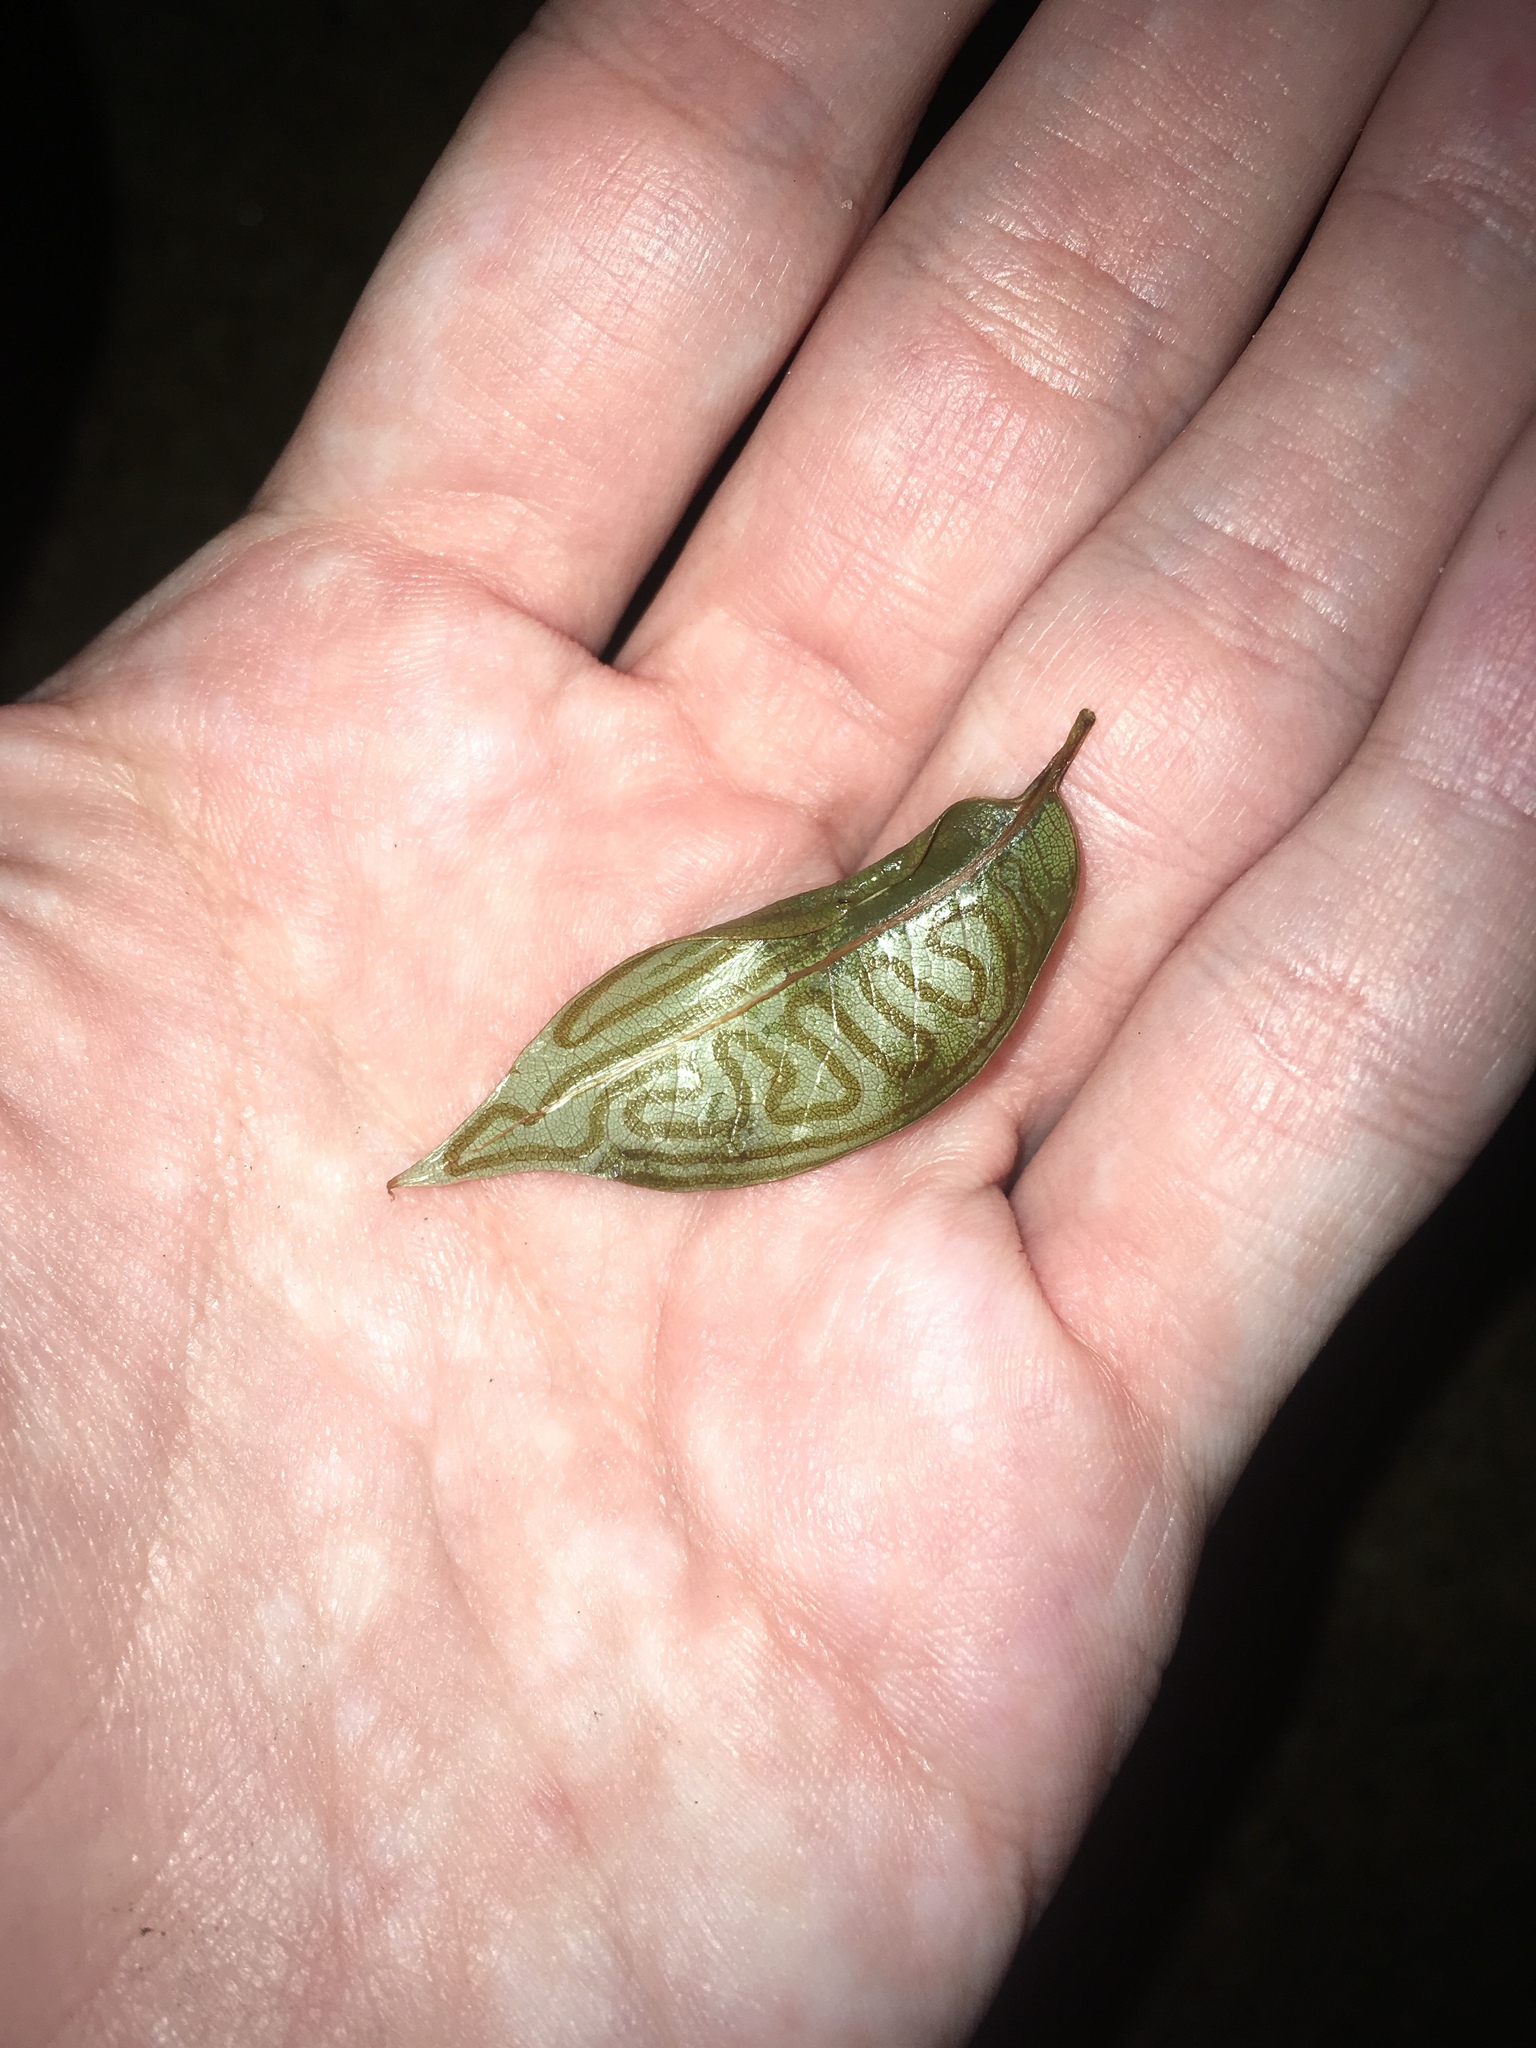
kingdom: Animalia
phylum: Arthropoda
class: Insecta
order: Lepidoptera
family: Gracillariidae
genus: Phyllocnistis
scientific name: Phyllocnistis meliacella
